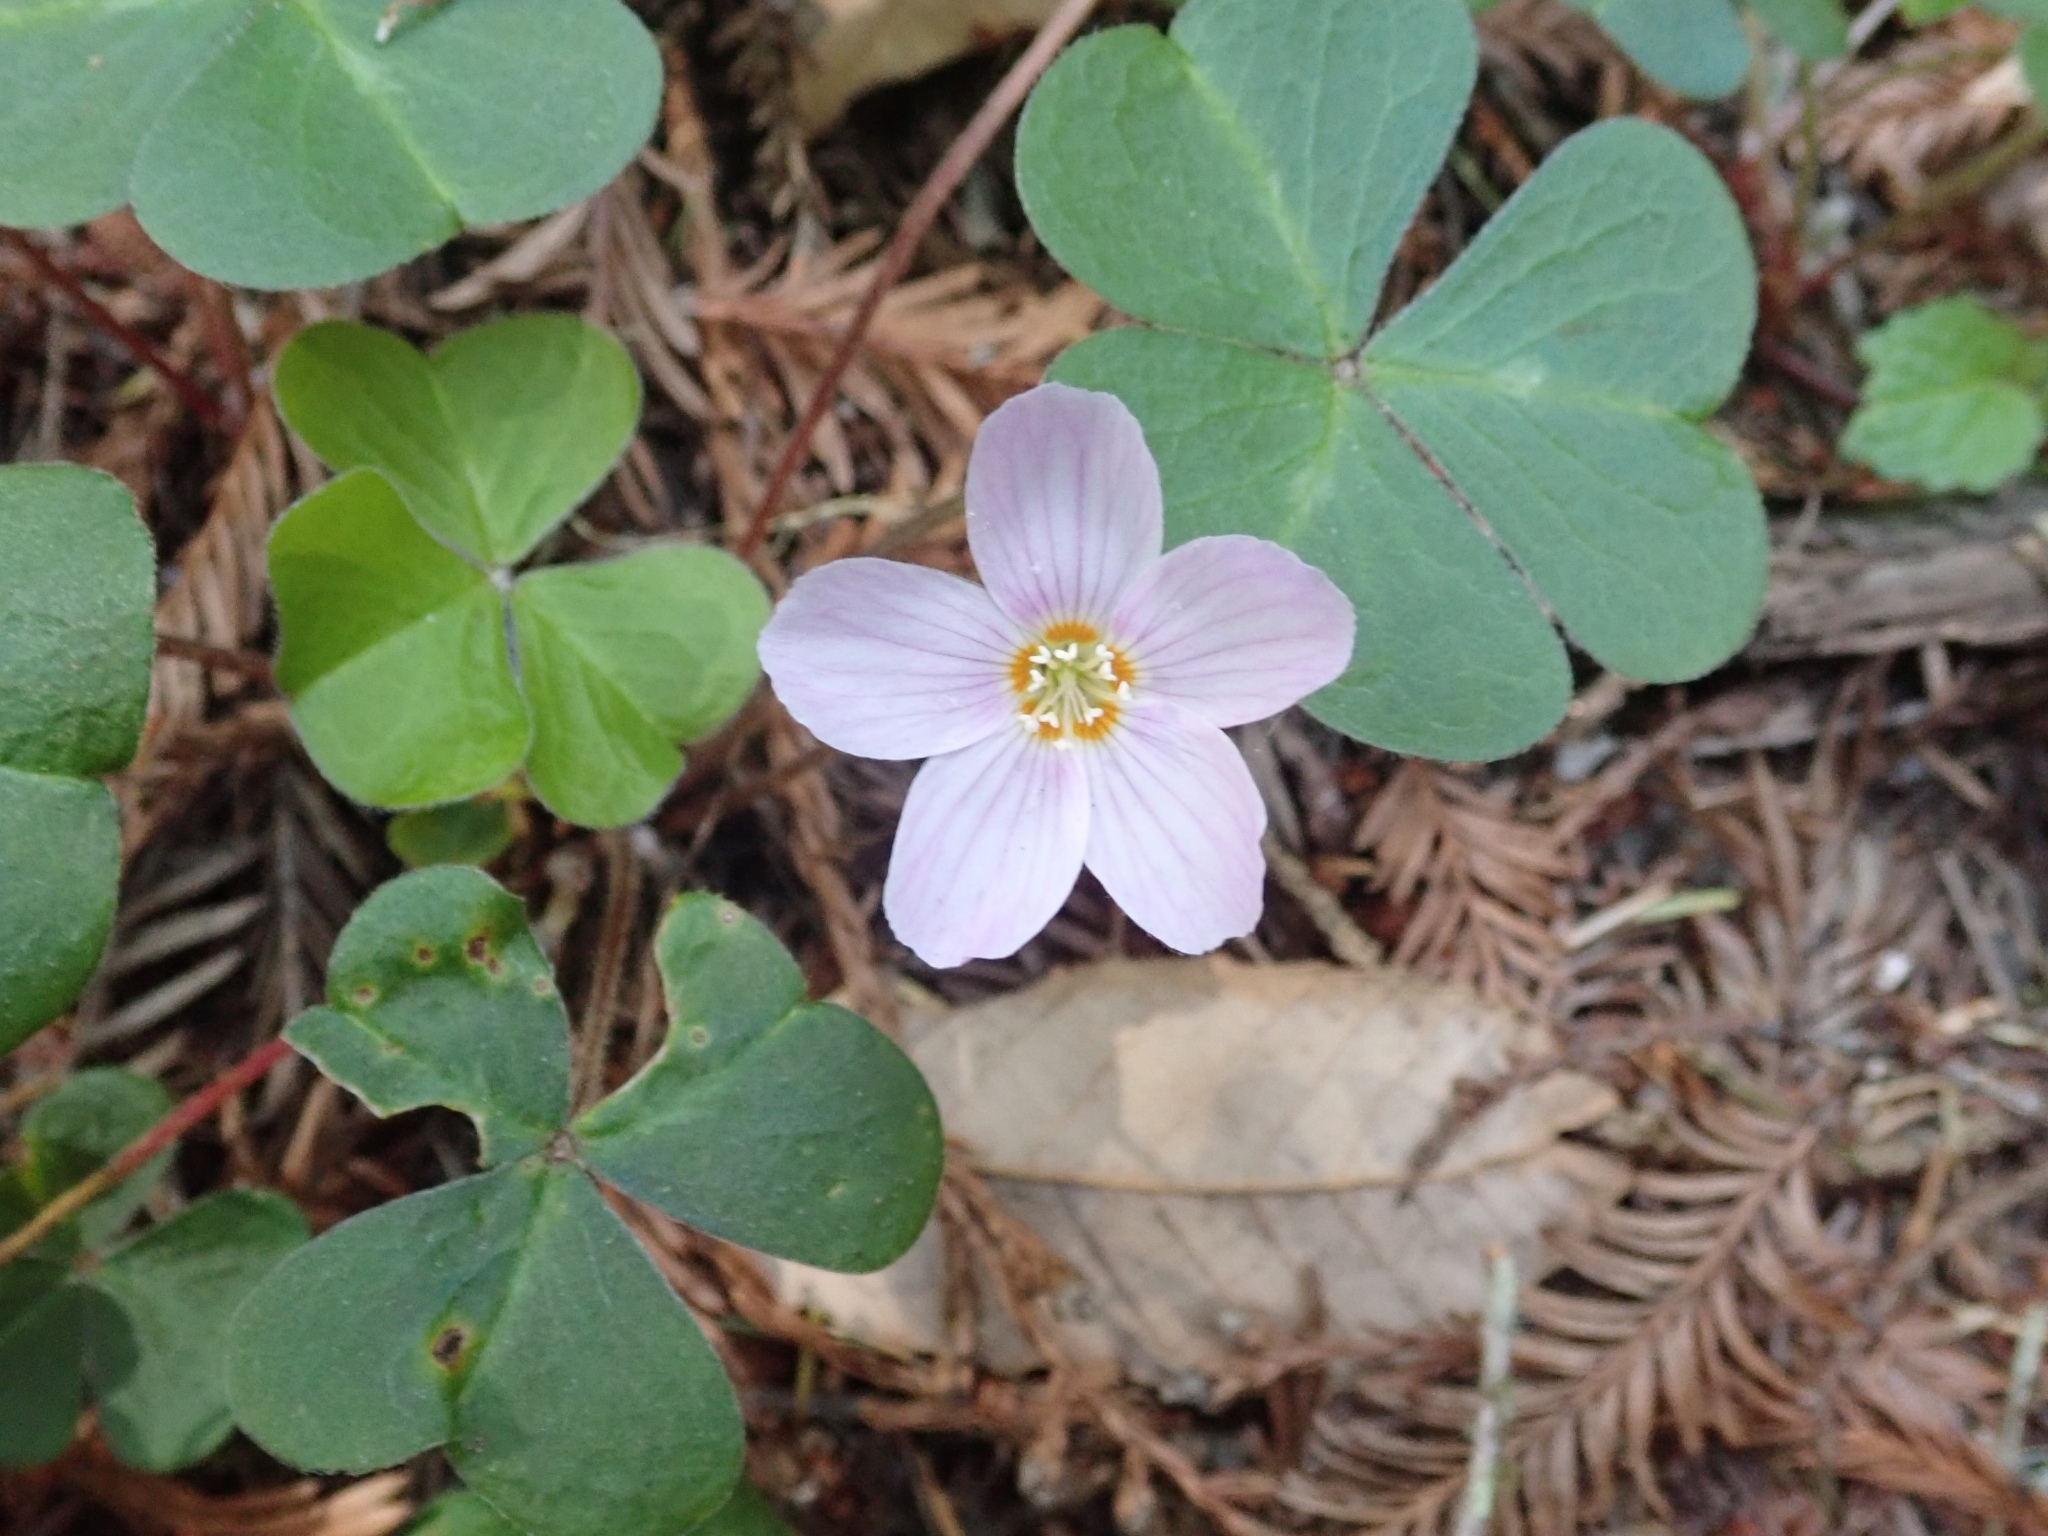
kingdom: Plantae
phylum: Tracheophyta
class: Magnoliopsida
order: Oxalidales
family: Oxalidaceae
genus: Oxalis
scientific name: Oxalis oregana
